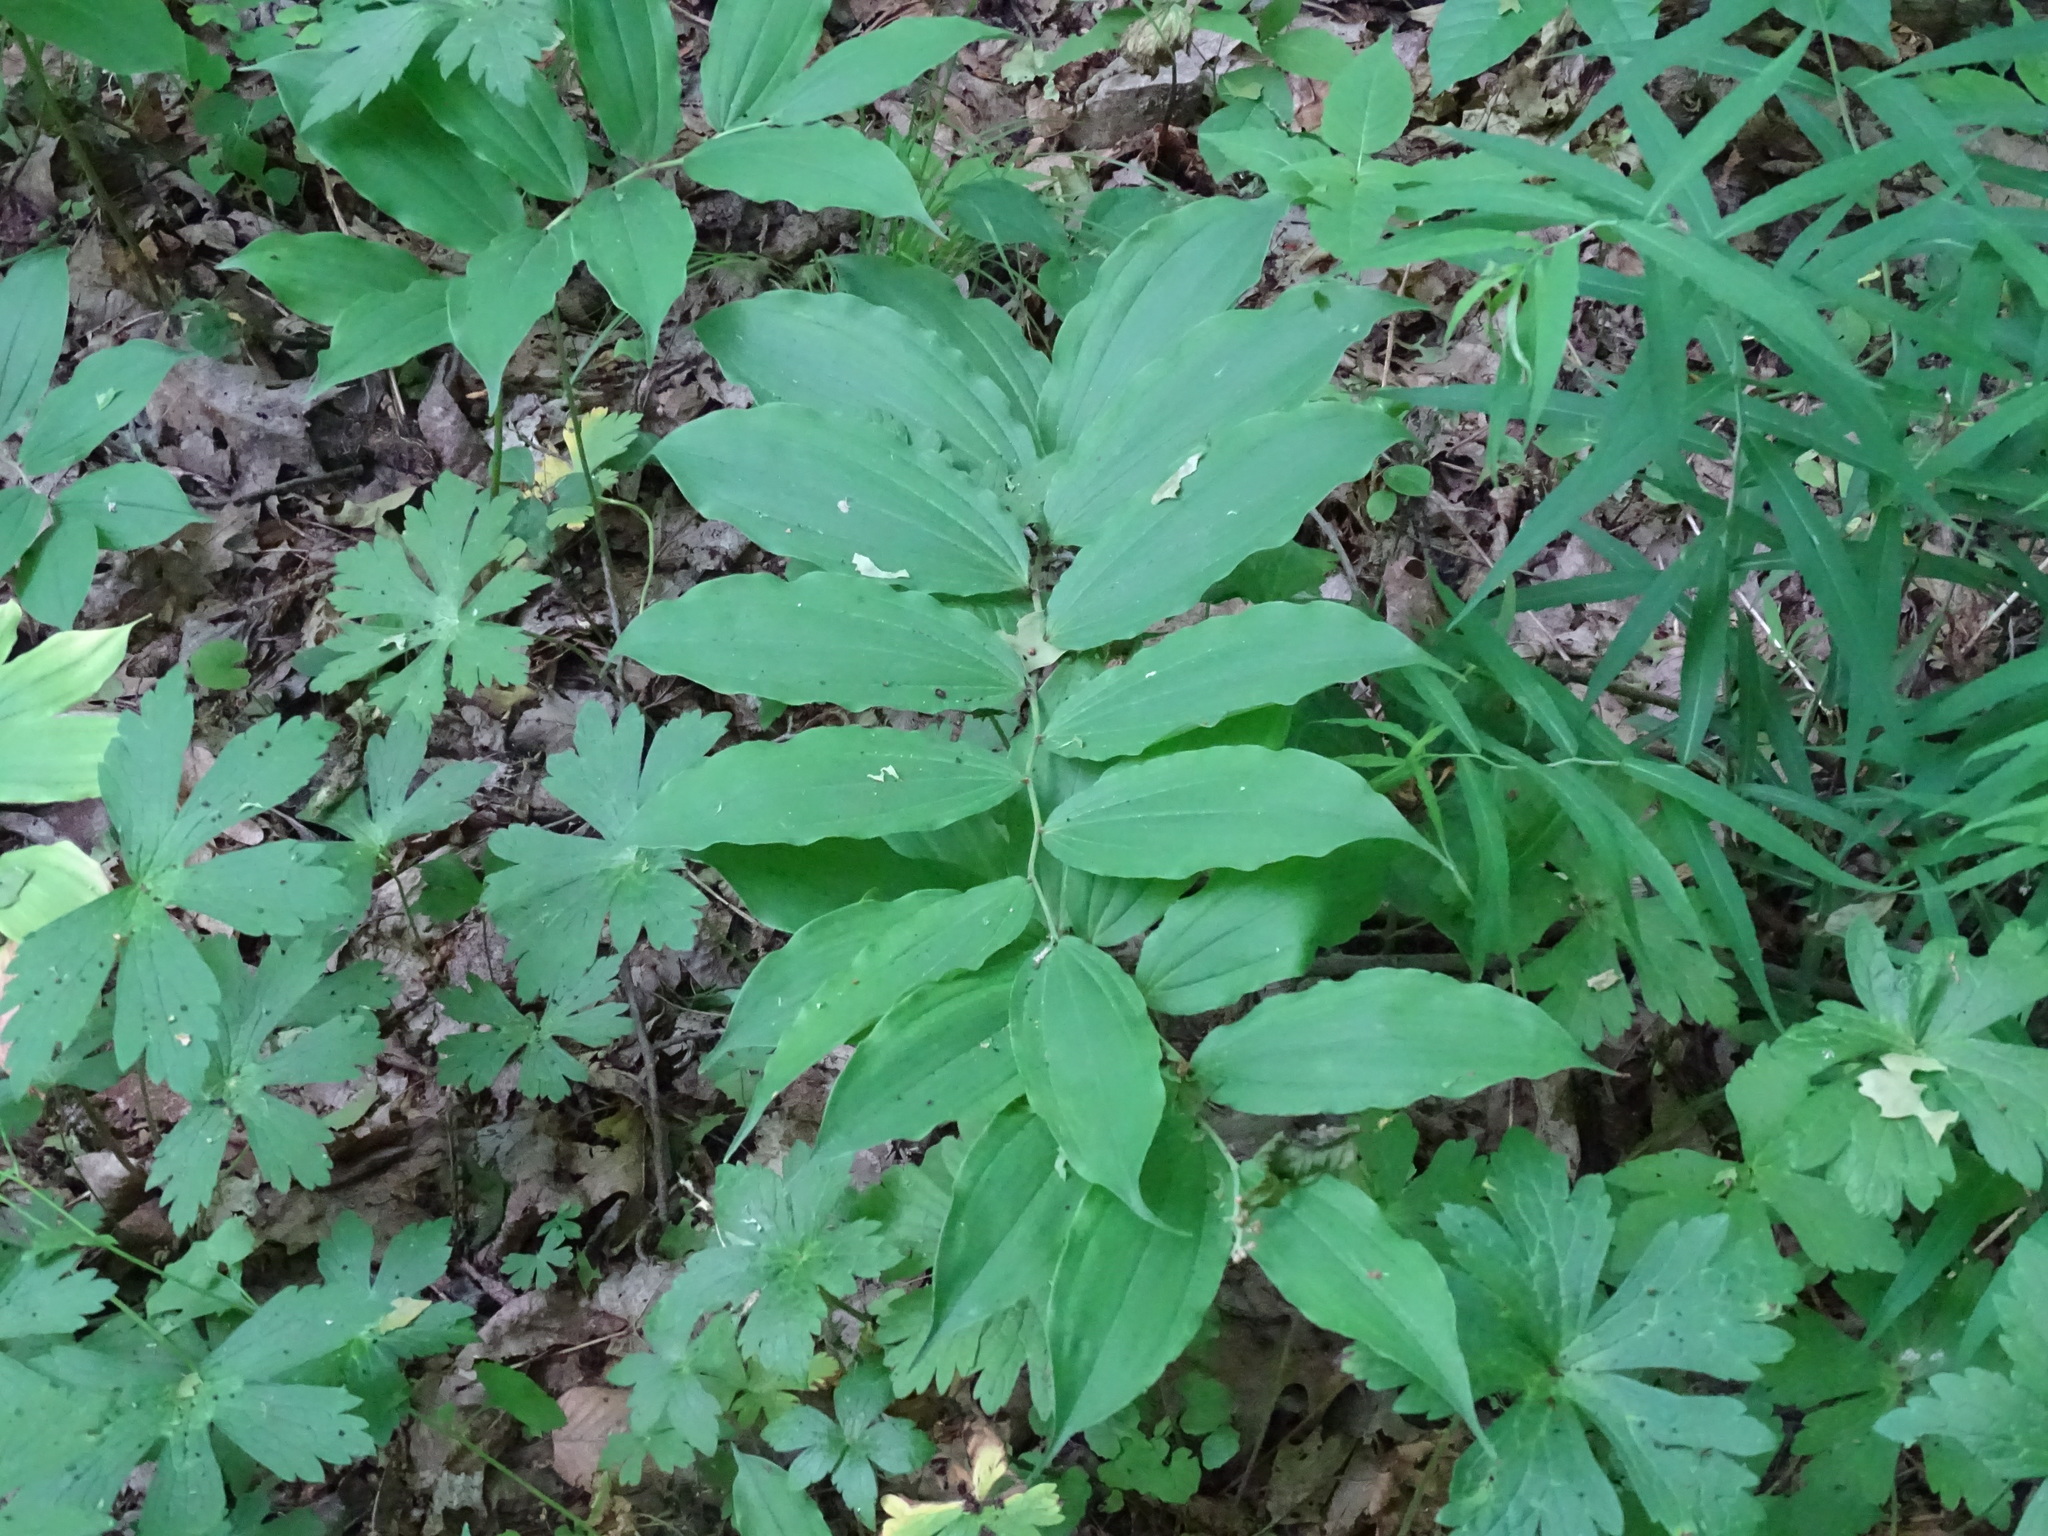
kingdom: Plantae
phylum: Tracheophyta
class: Liliopsida
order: Asparagales
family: Asparagaceae
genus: Maianthemum
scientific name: Maianthemum racemosum
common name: False spikenard
